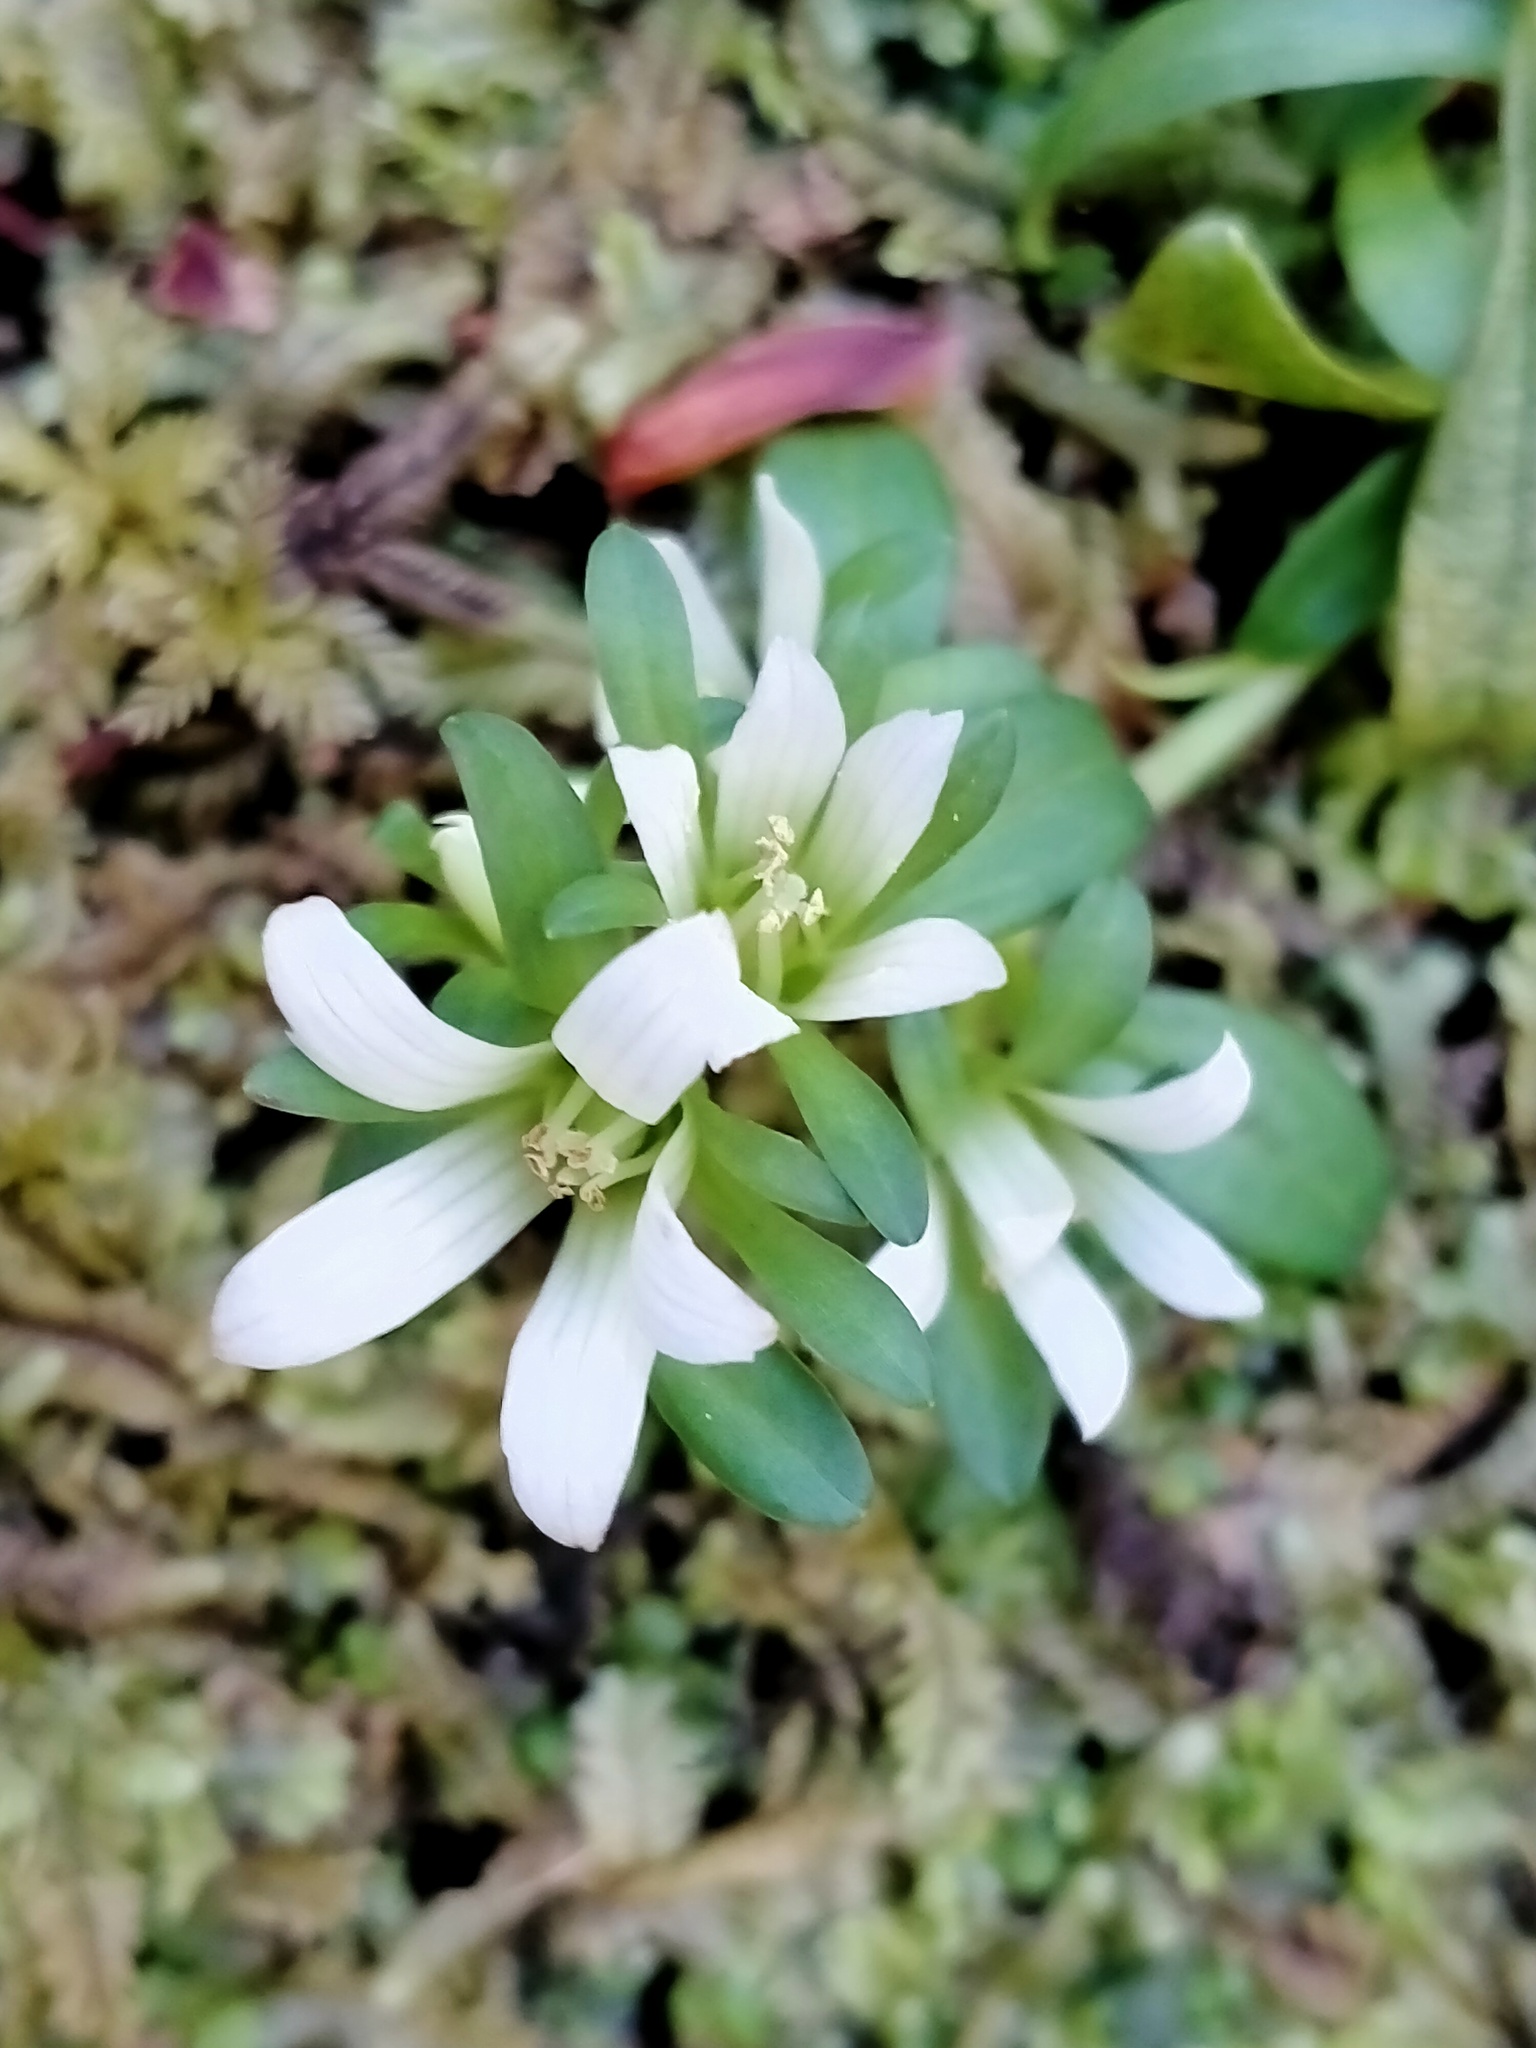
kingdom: Plantae
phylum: Tracheophyta
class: Magnoliopsida
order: Gentianales
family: Gentianaceae
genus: Gentianella
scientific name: Gentianella concinna
